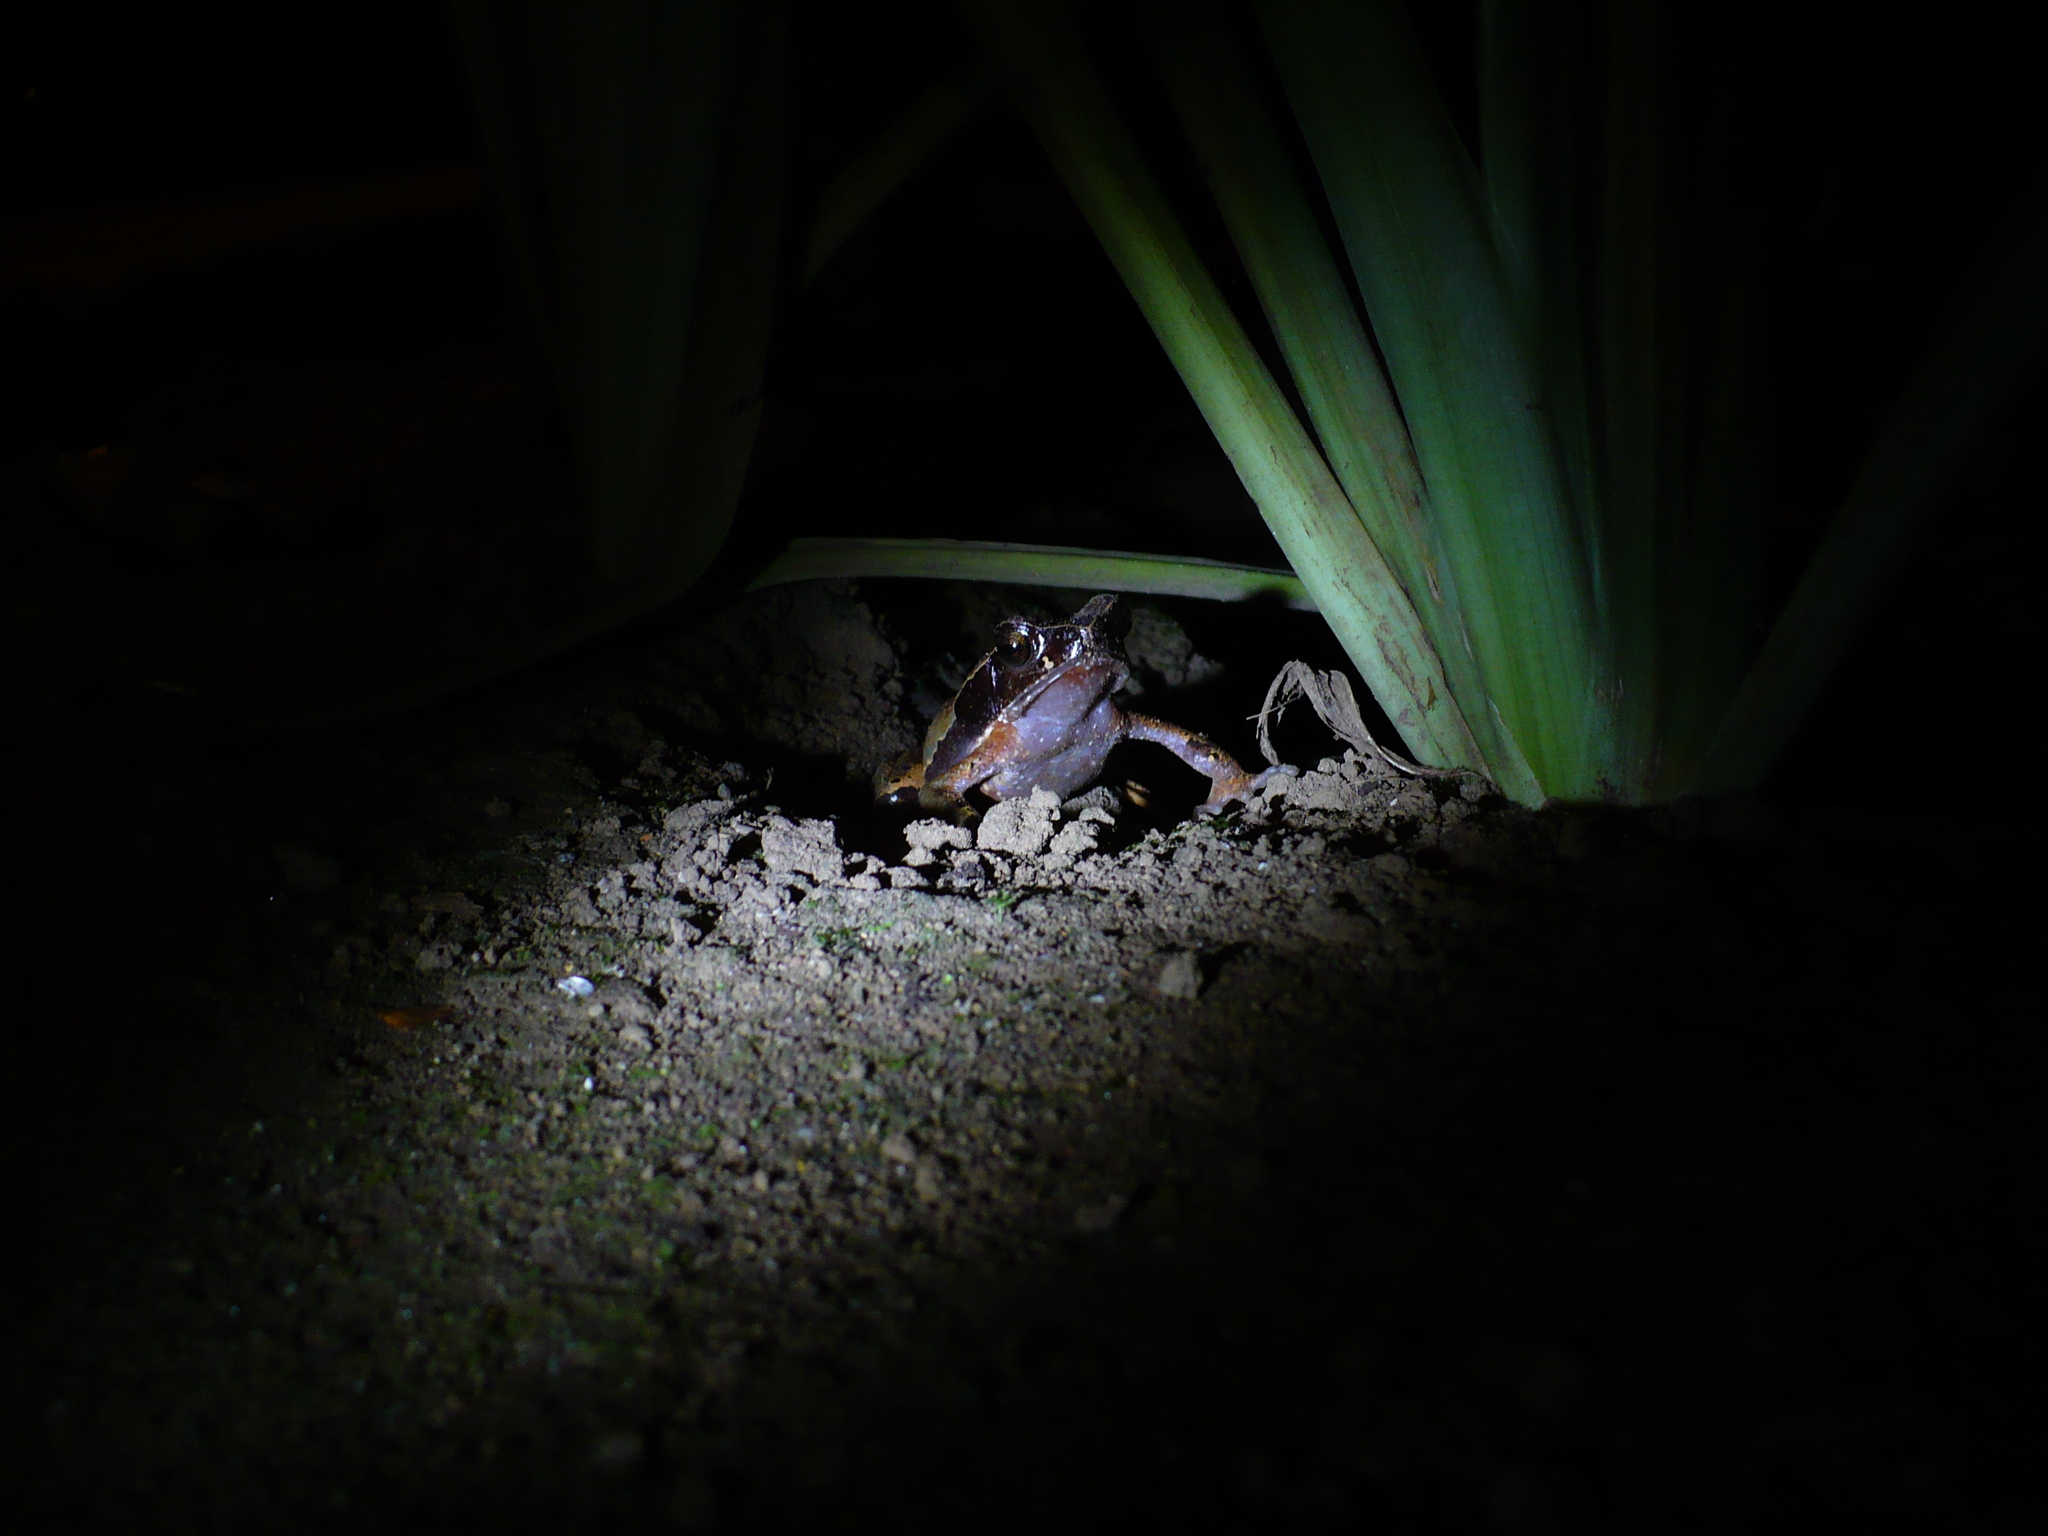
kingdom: Animalia
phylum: Chordata
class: Amphibia
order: Anura
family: Bufonidae
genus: Rhaebo
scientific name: Rhaebo haematiticus
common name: Truando toad
